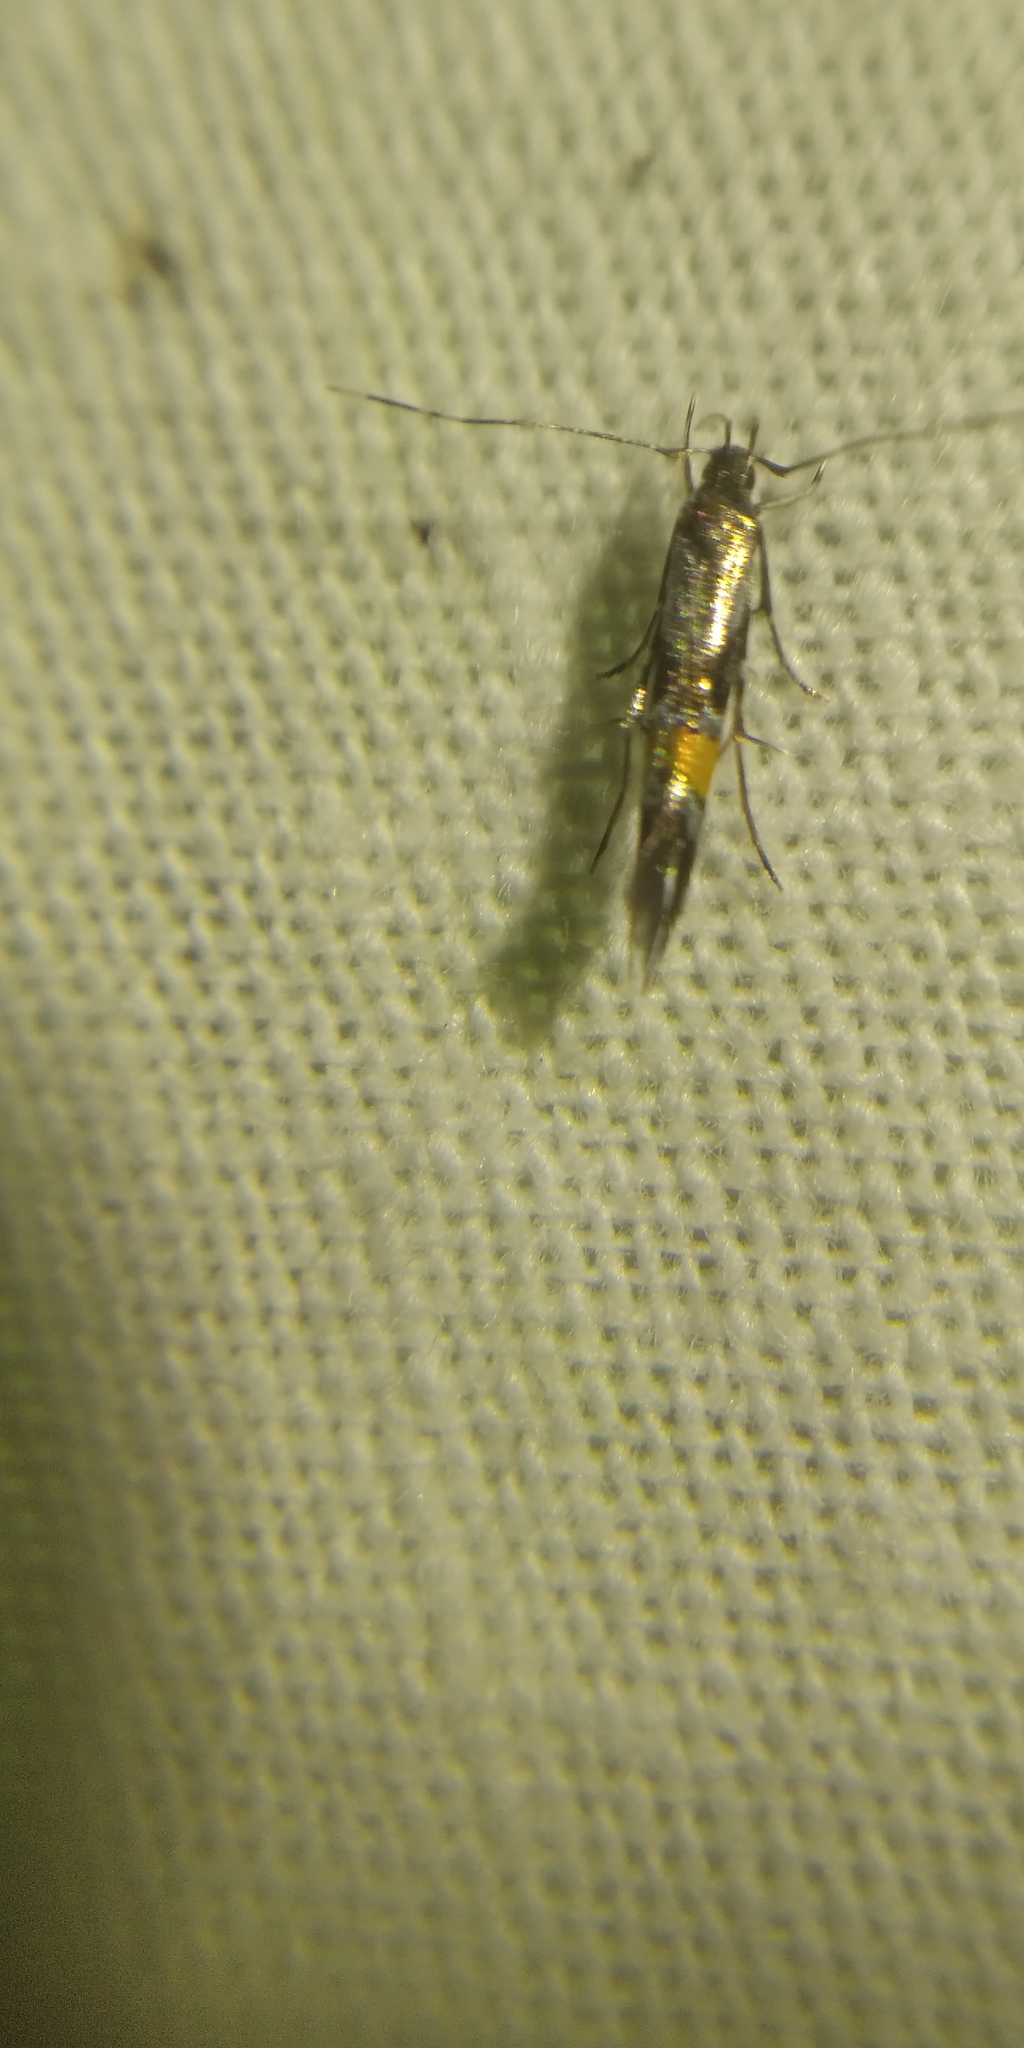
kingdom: Animalia
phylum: Arthropoda
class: Insecta
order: Lepidoptera
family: Cosmopterigidae
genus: Cosmopterix
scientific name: Cosmopterix orichalcea
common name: Marsh cosmet
